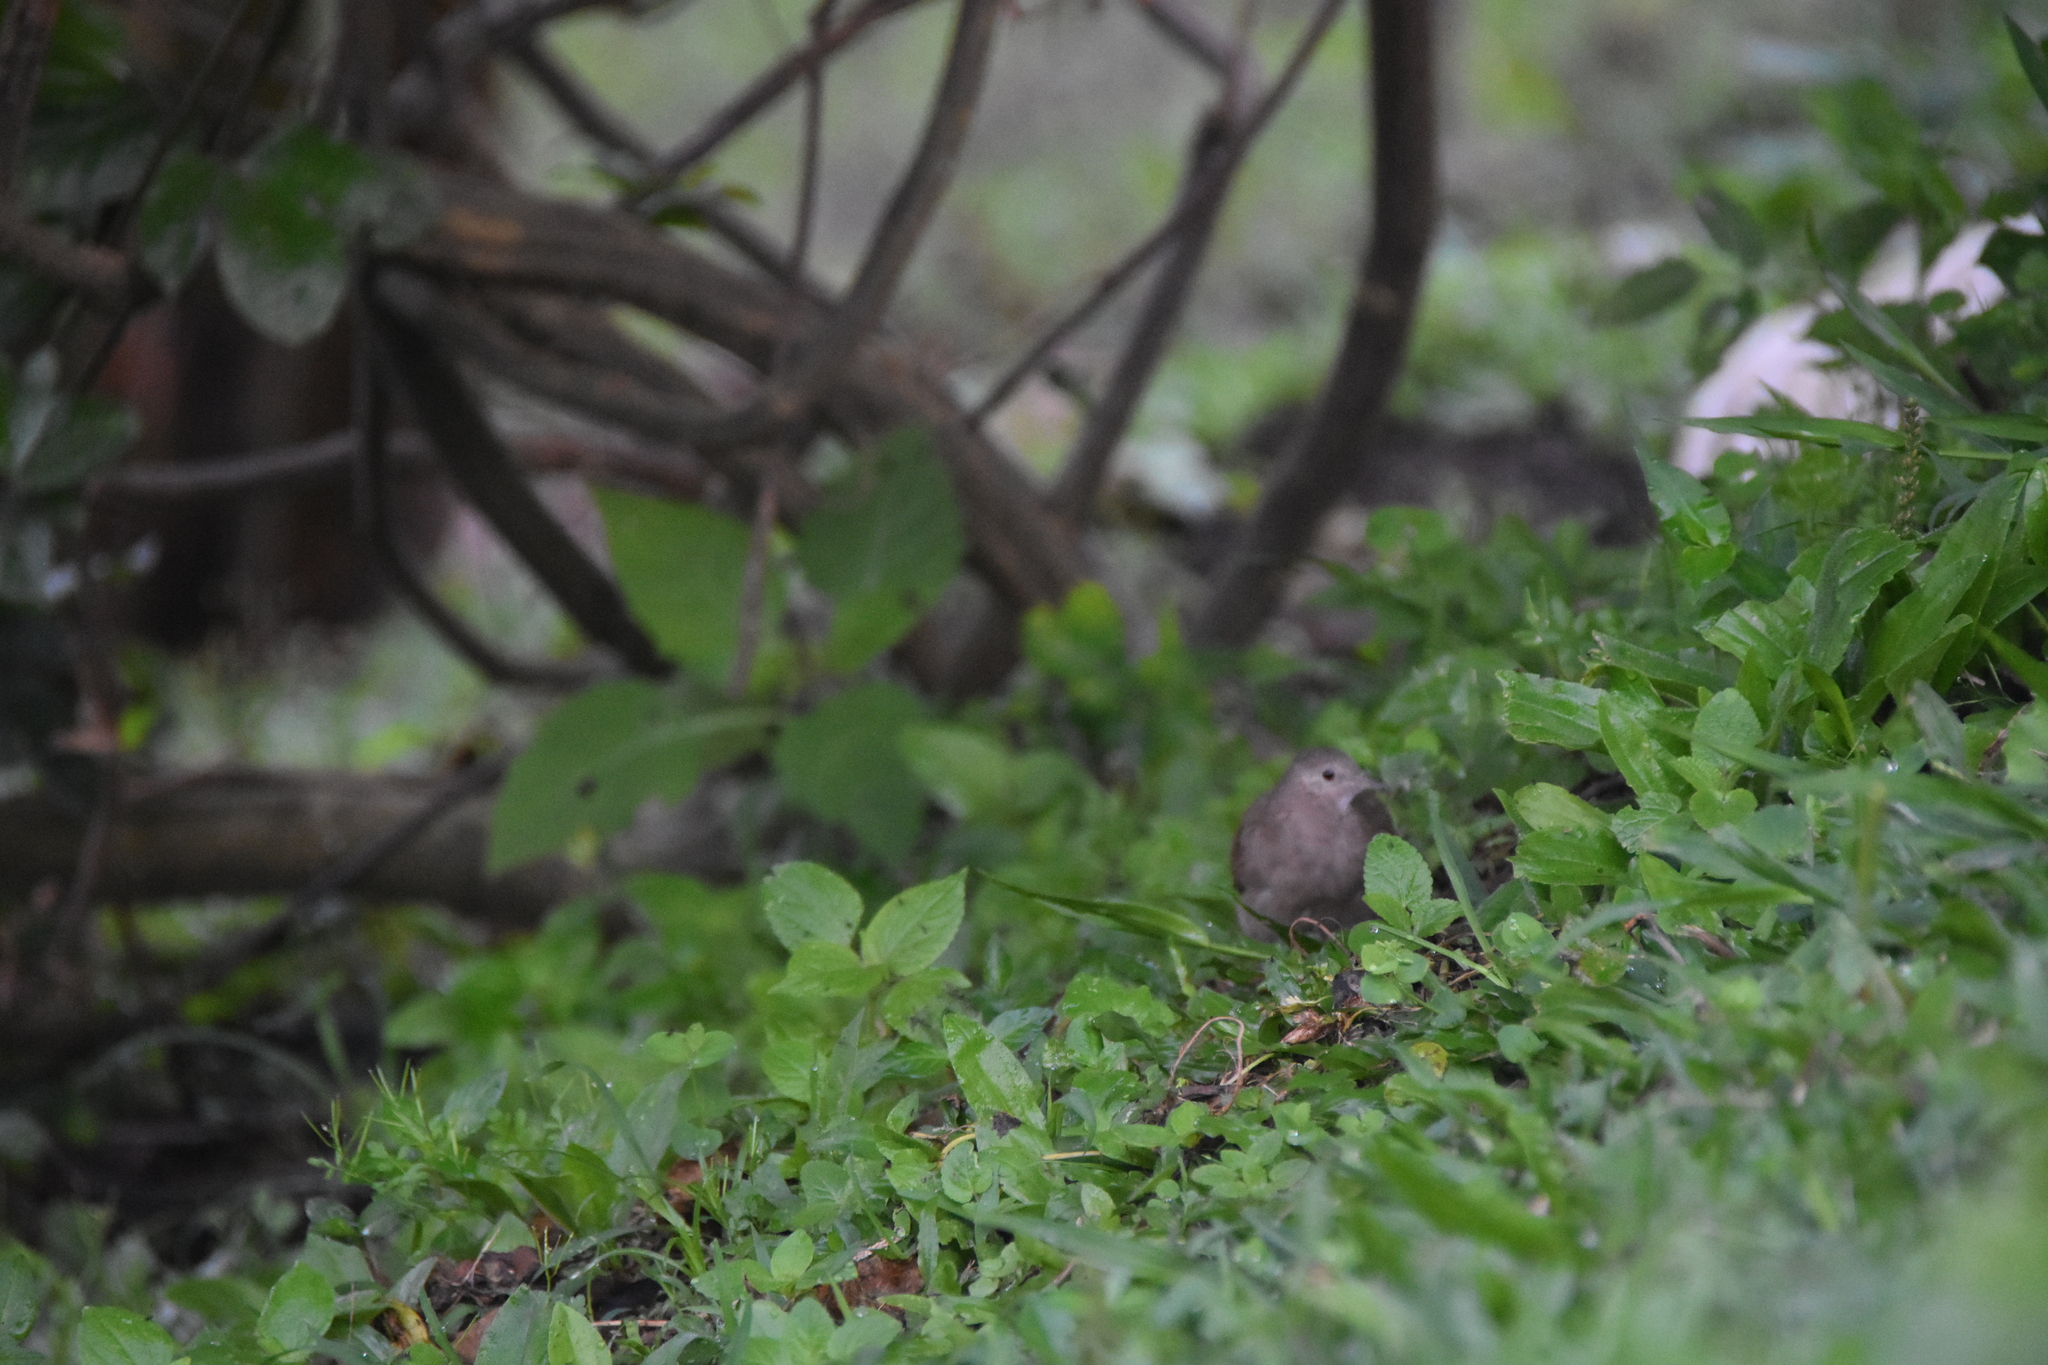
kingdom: Animalia
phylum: Chordata
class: Aves
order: Columbiformes
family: Columbidae
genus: Columbina
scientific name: Columbina talpacoti
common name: Ruddy ground dove
